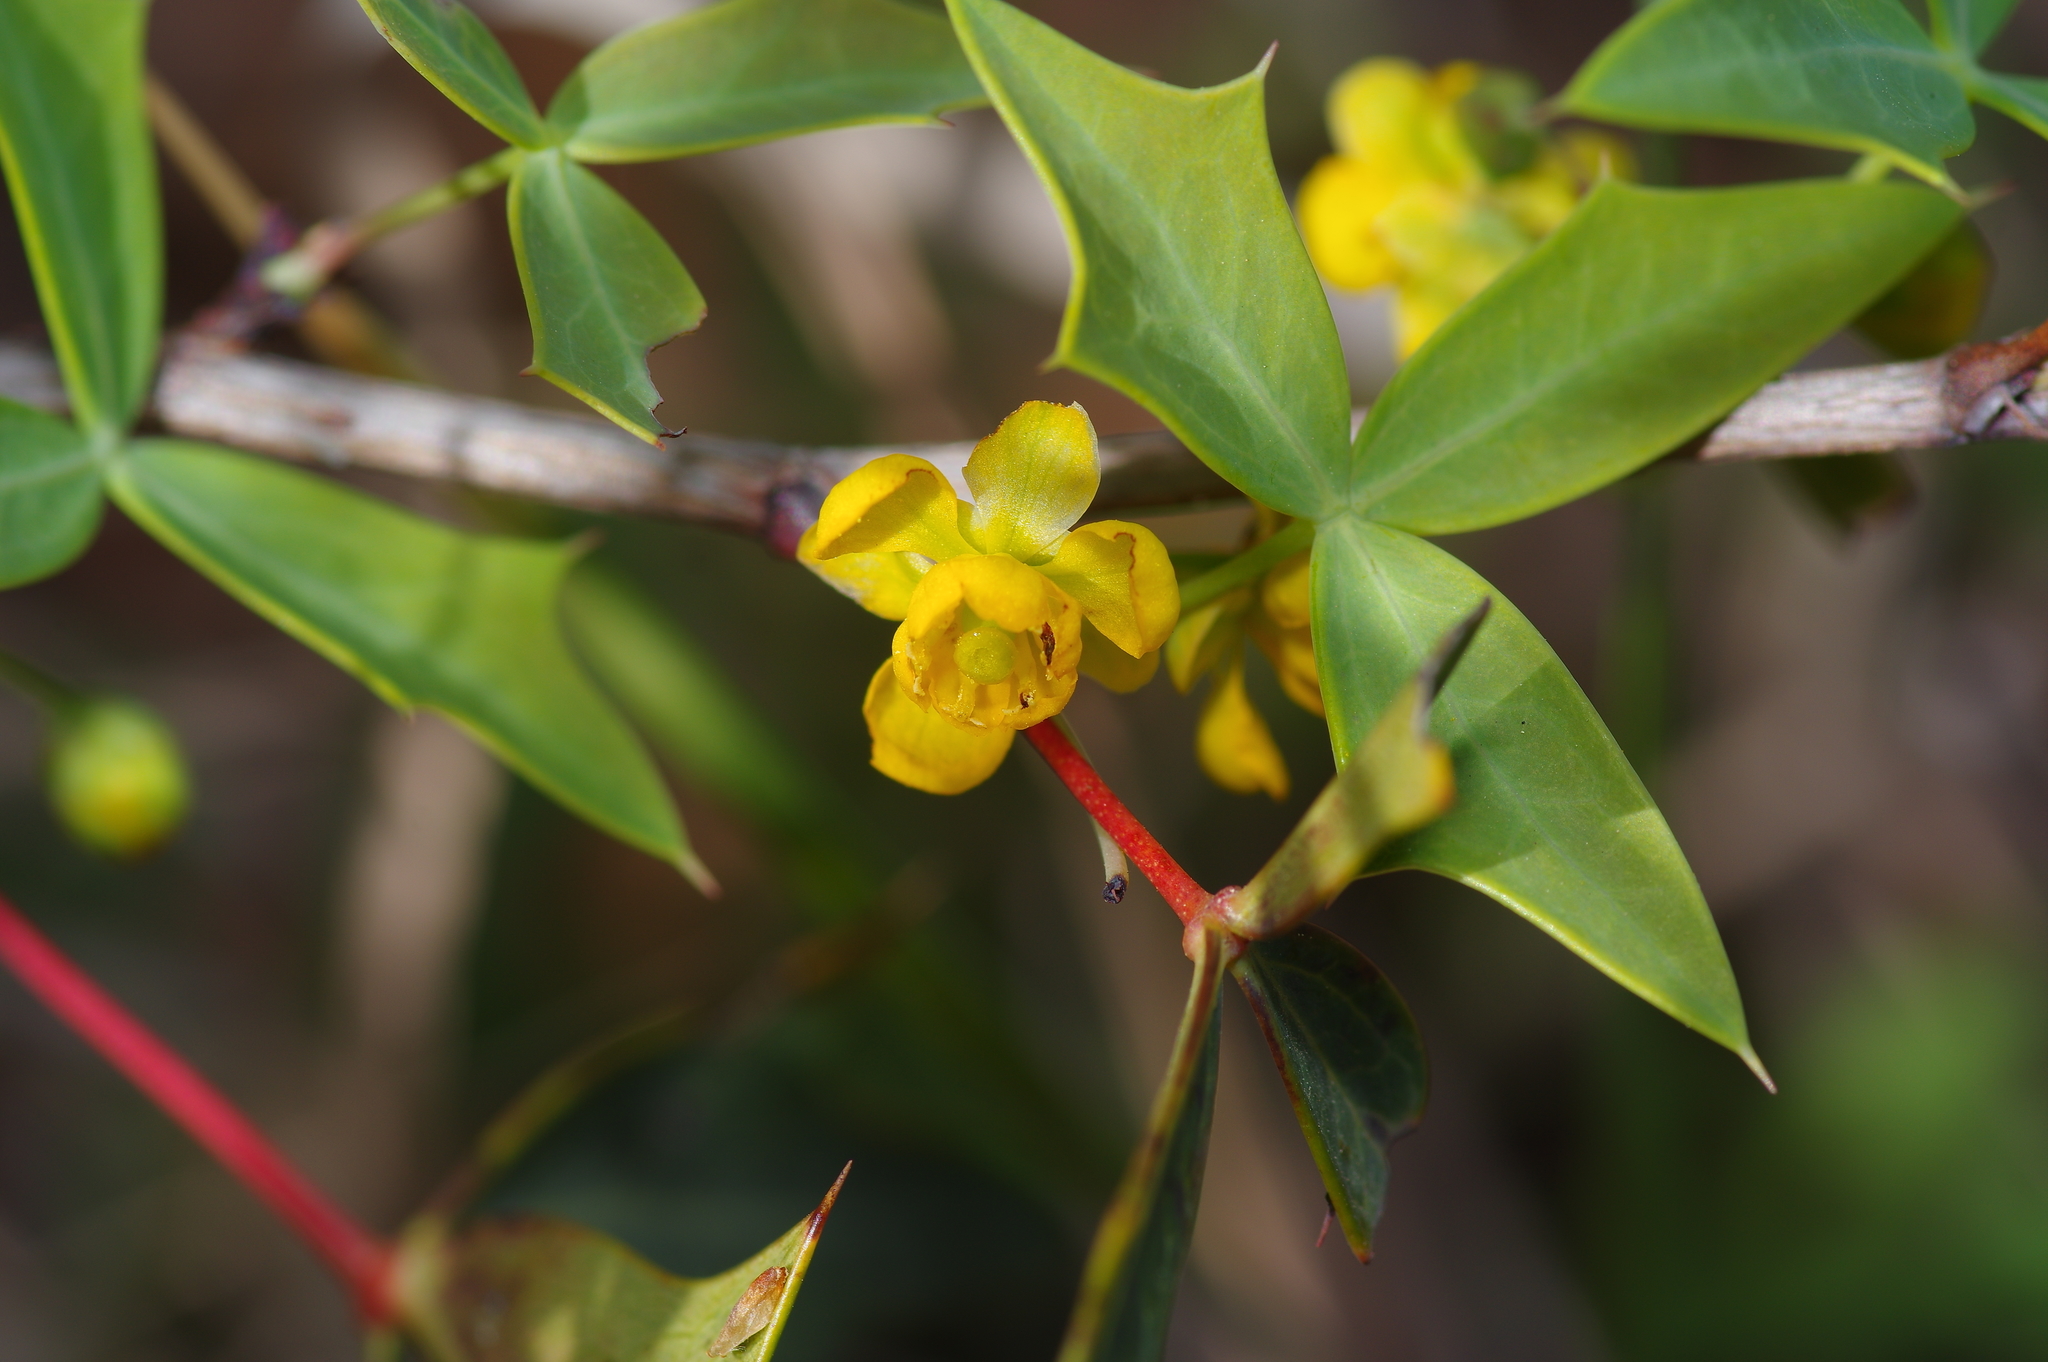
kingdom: Plantae
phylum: Tracheophyta
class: Magnoliopsida
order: Ranunculales
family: Berberidaceae
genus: Alloberberis
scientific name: Alloberberis trifoliolata
